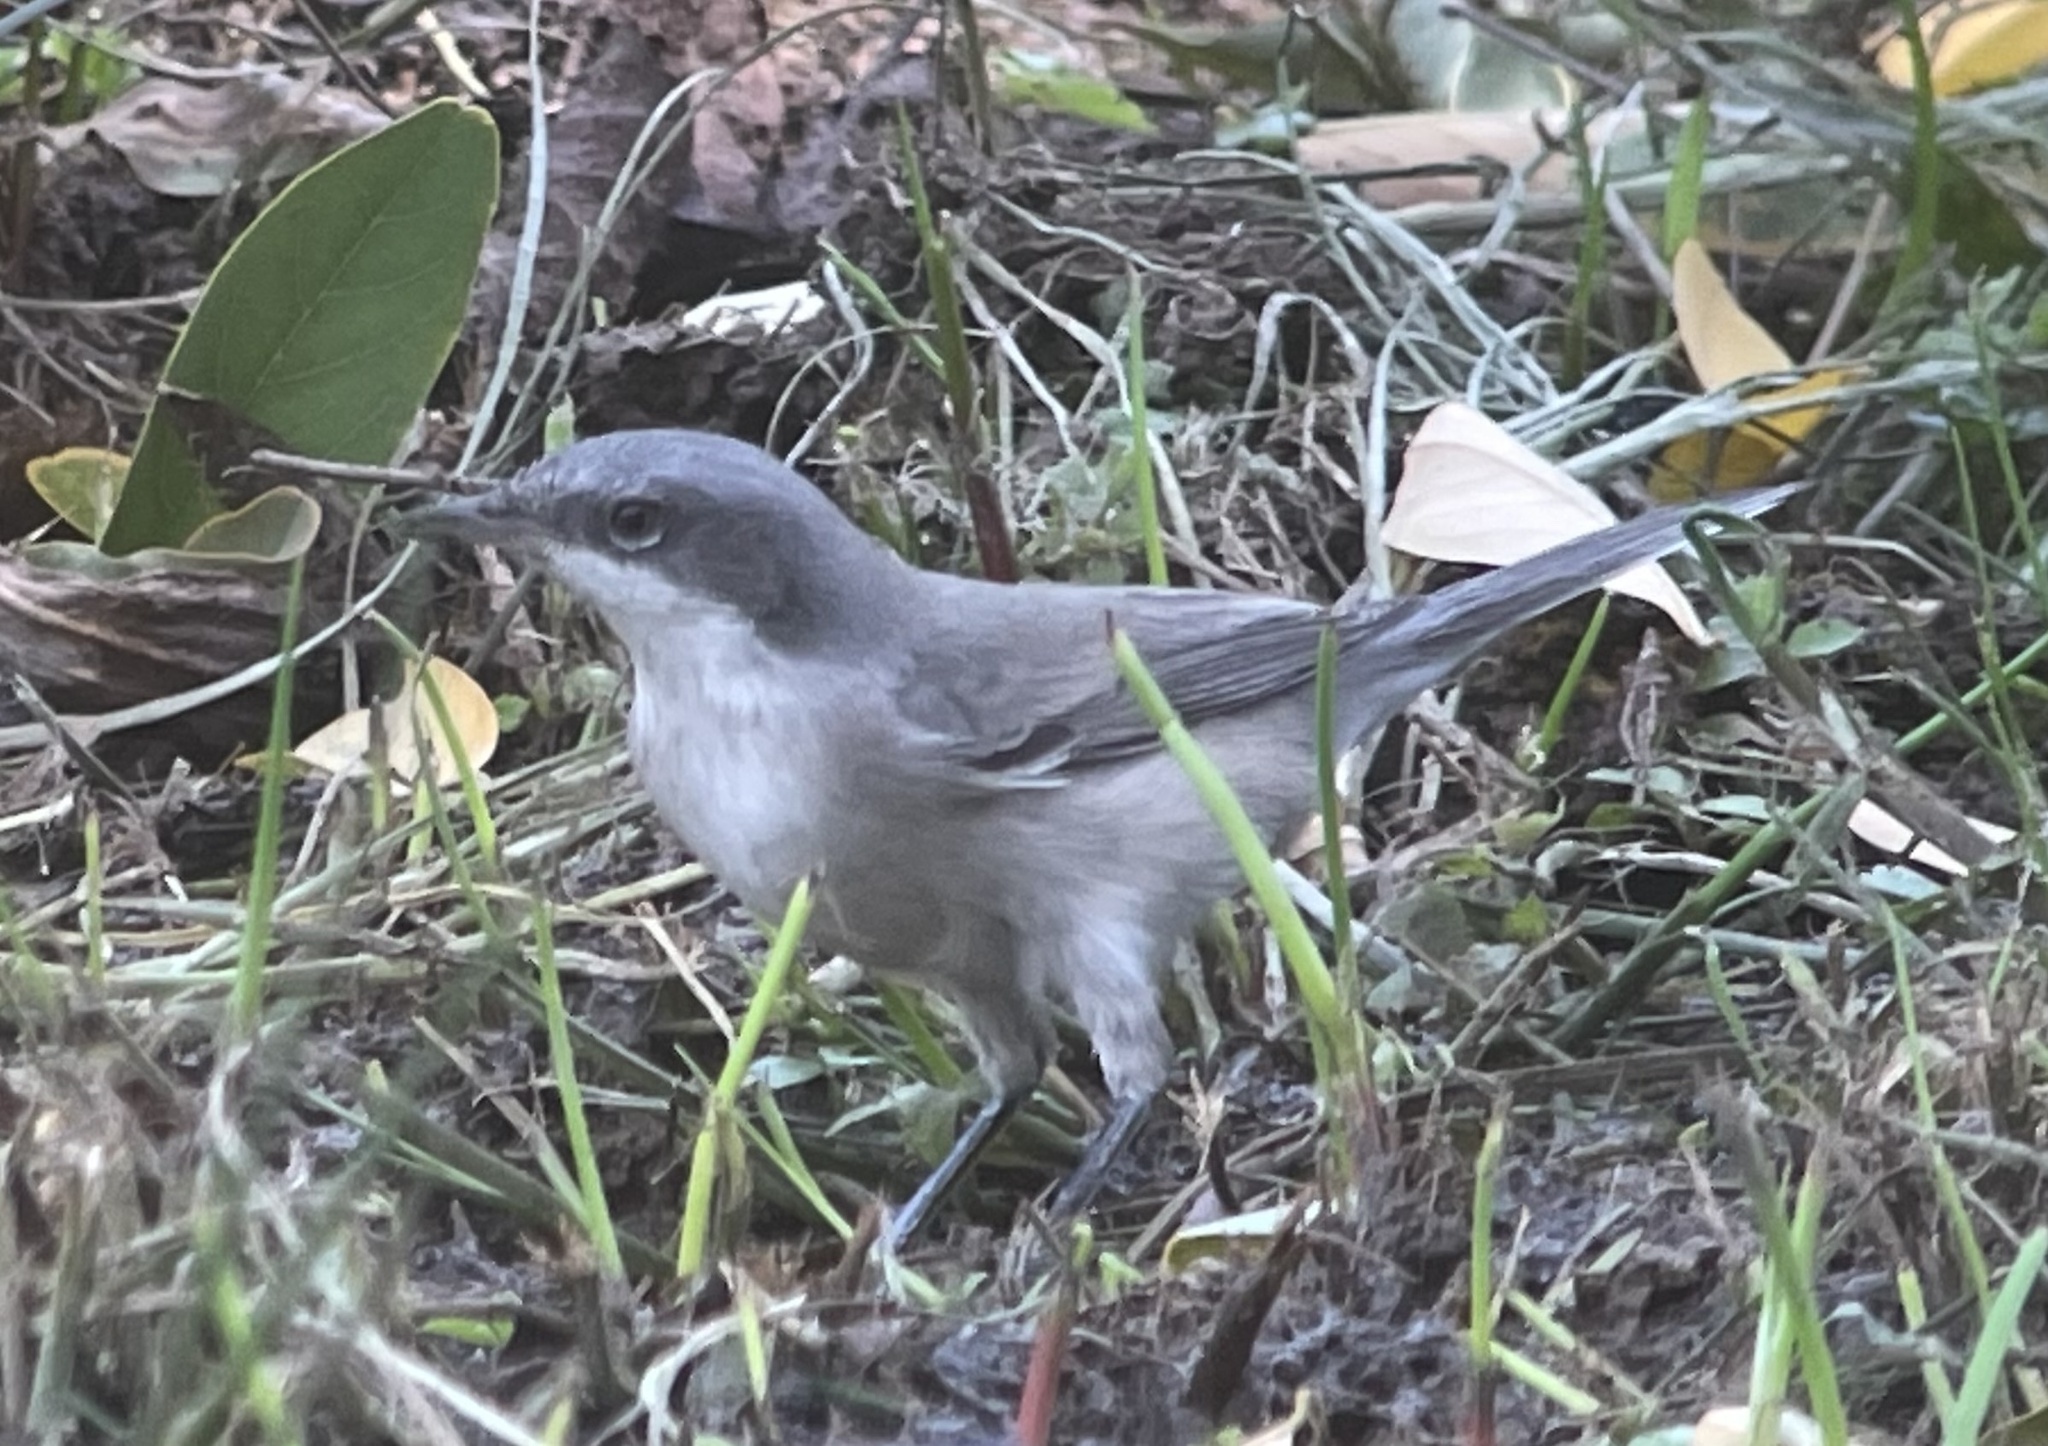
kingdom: Animalia
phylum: Chordata
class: Aves
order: Passeriformes
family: Sylviidae
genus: Sylvia
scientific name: Sylvia curruca
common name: Lesser whitethroat
